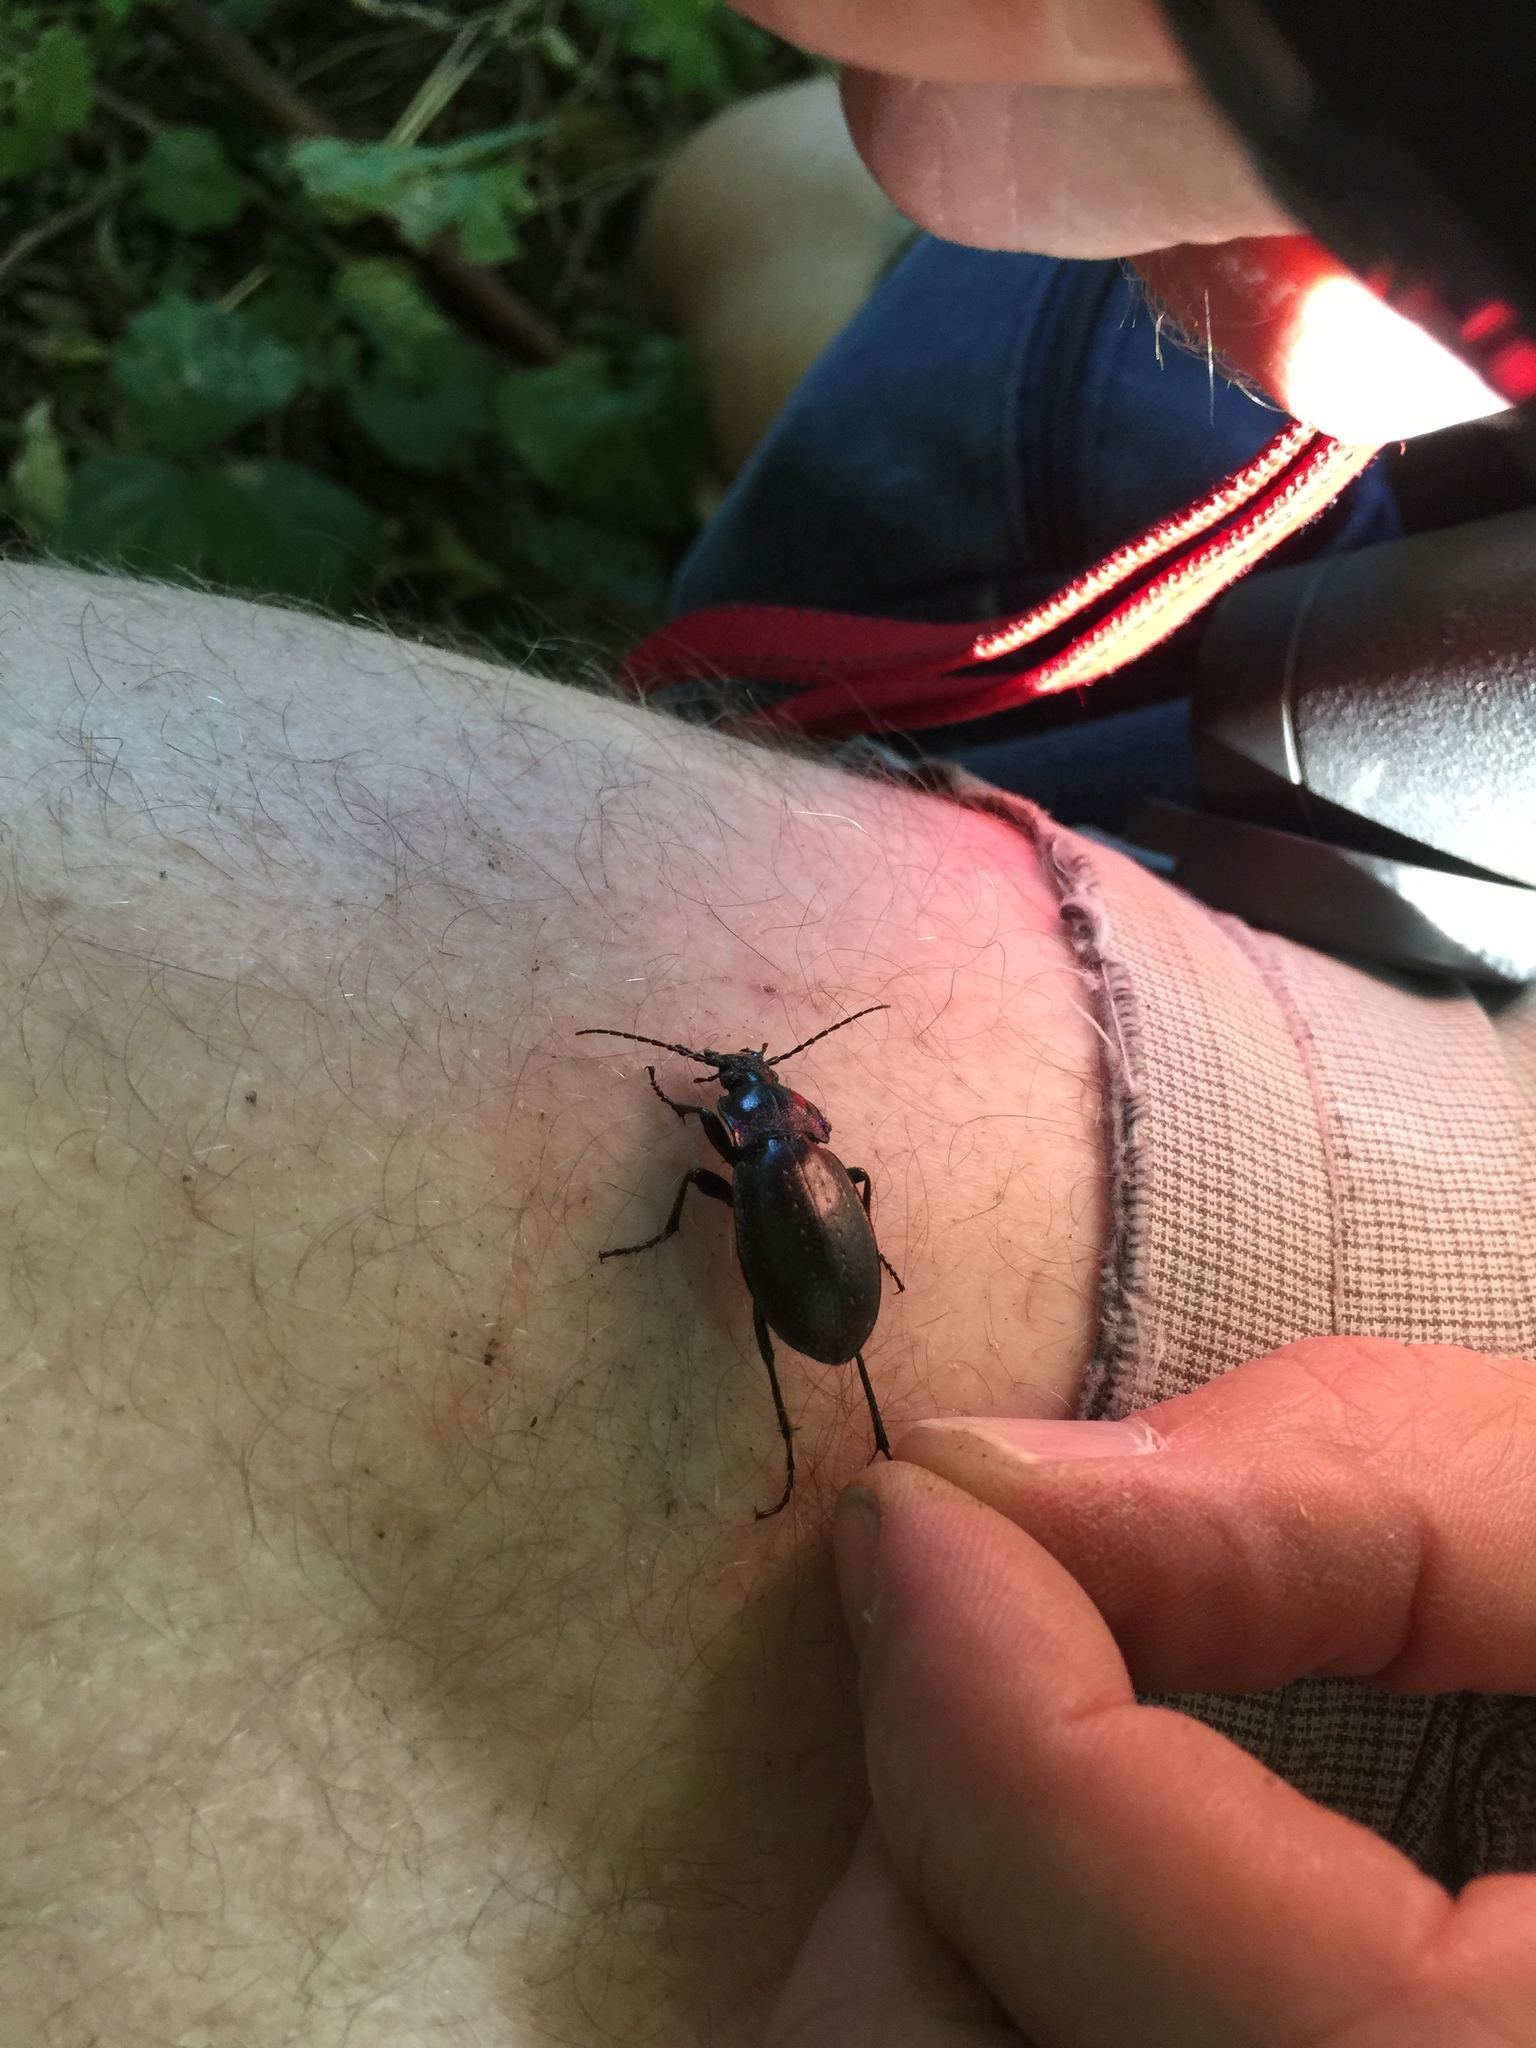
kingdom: Animalia
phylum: Arthropoda
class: Insecta
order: Coleoptera
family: Carabidae
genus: Carabus
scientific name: Carabus nemoralis
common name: European ground beetle
